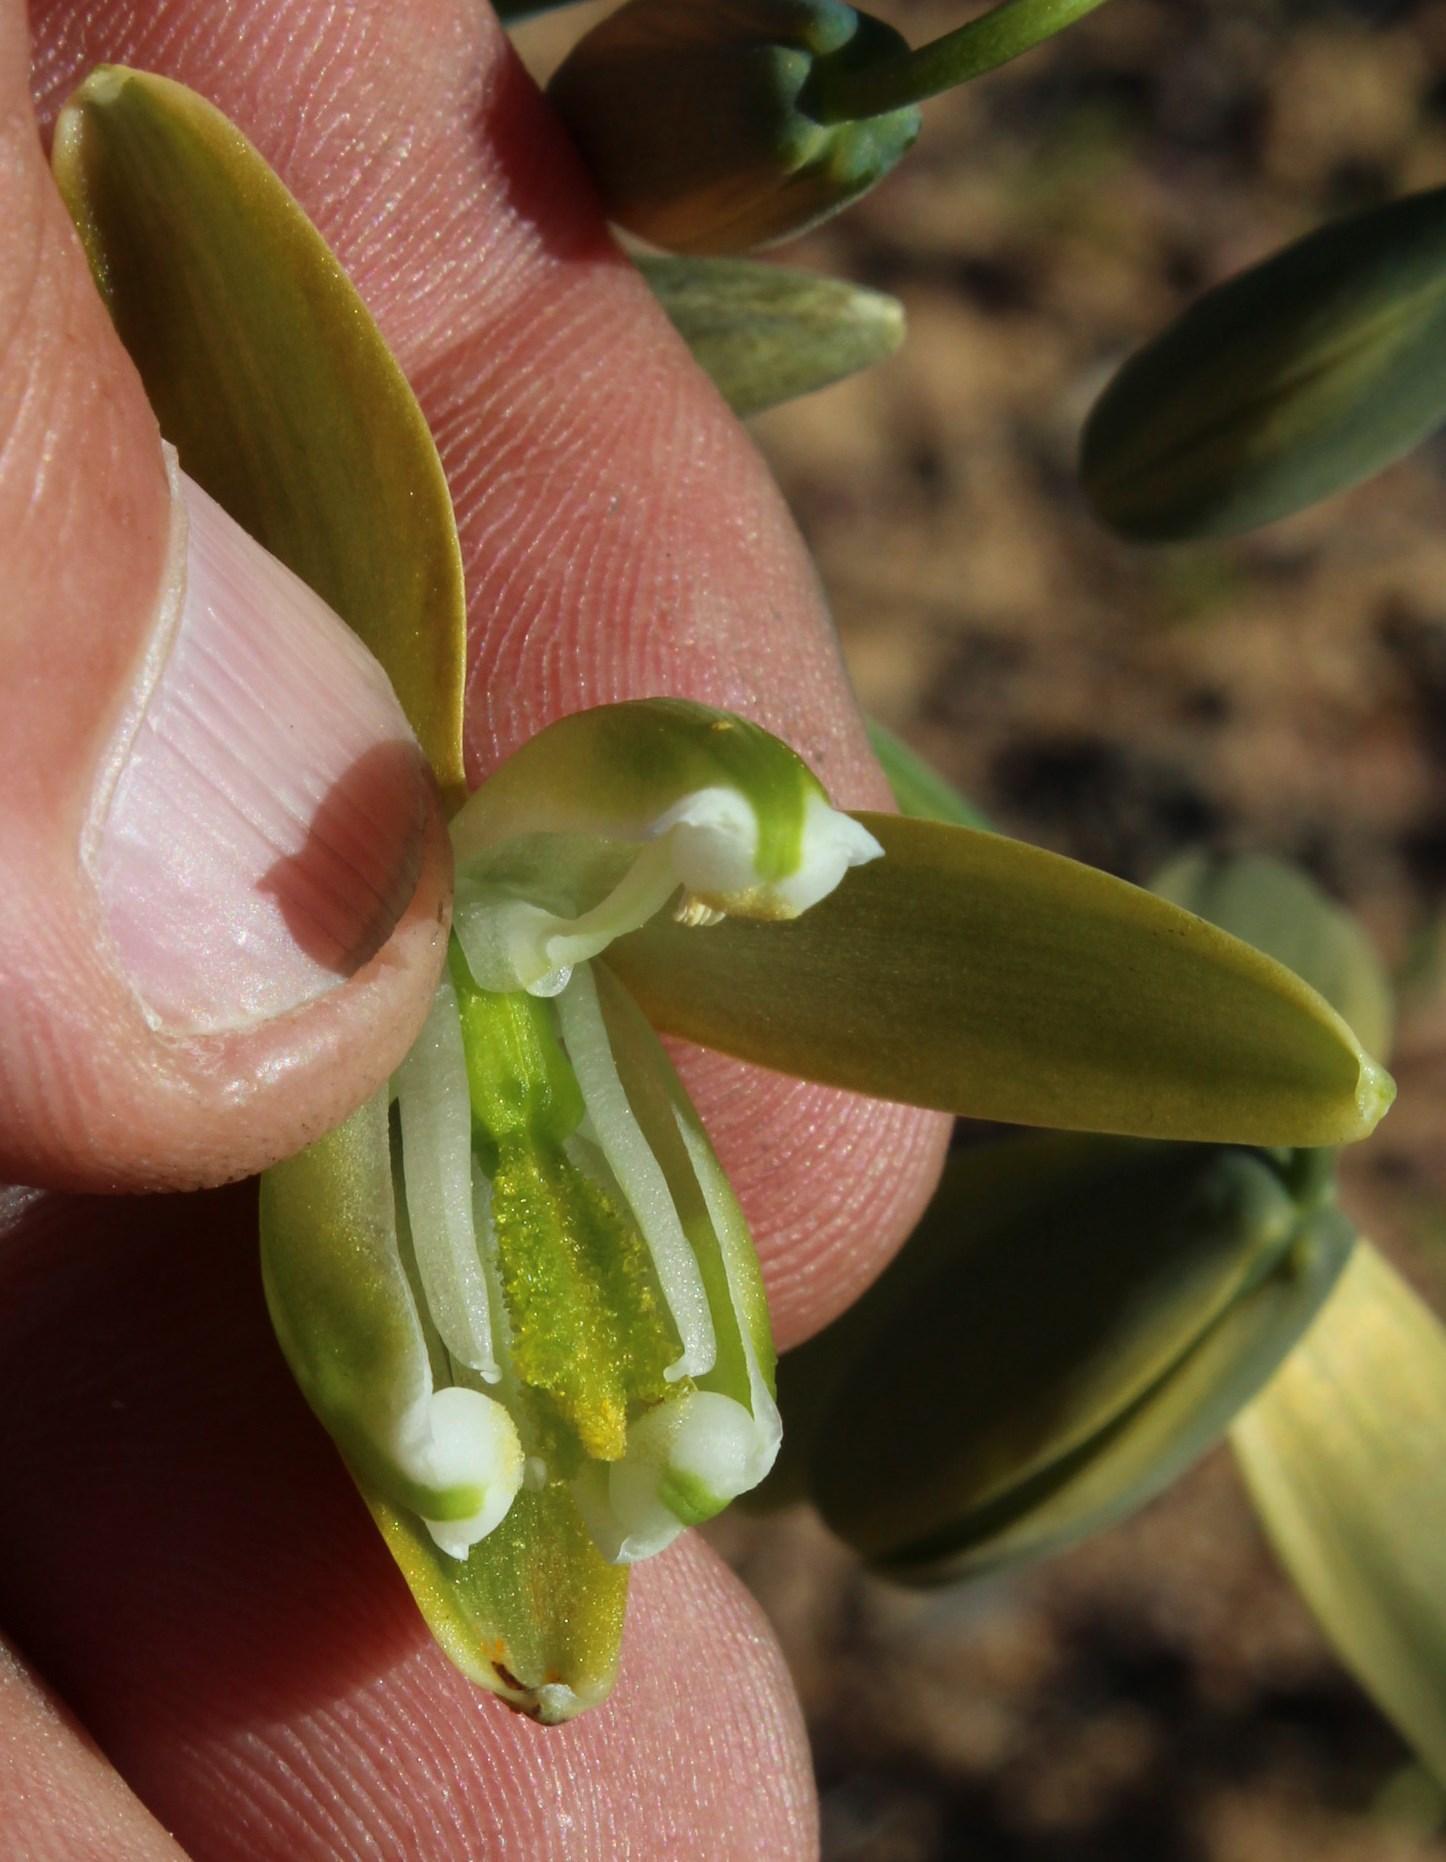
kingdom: Plantae
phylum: Tracheophyta
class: Liliopsida
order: Asparagales
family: Asparagaceae
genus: Albuca
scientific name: Albuca paradoxa
